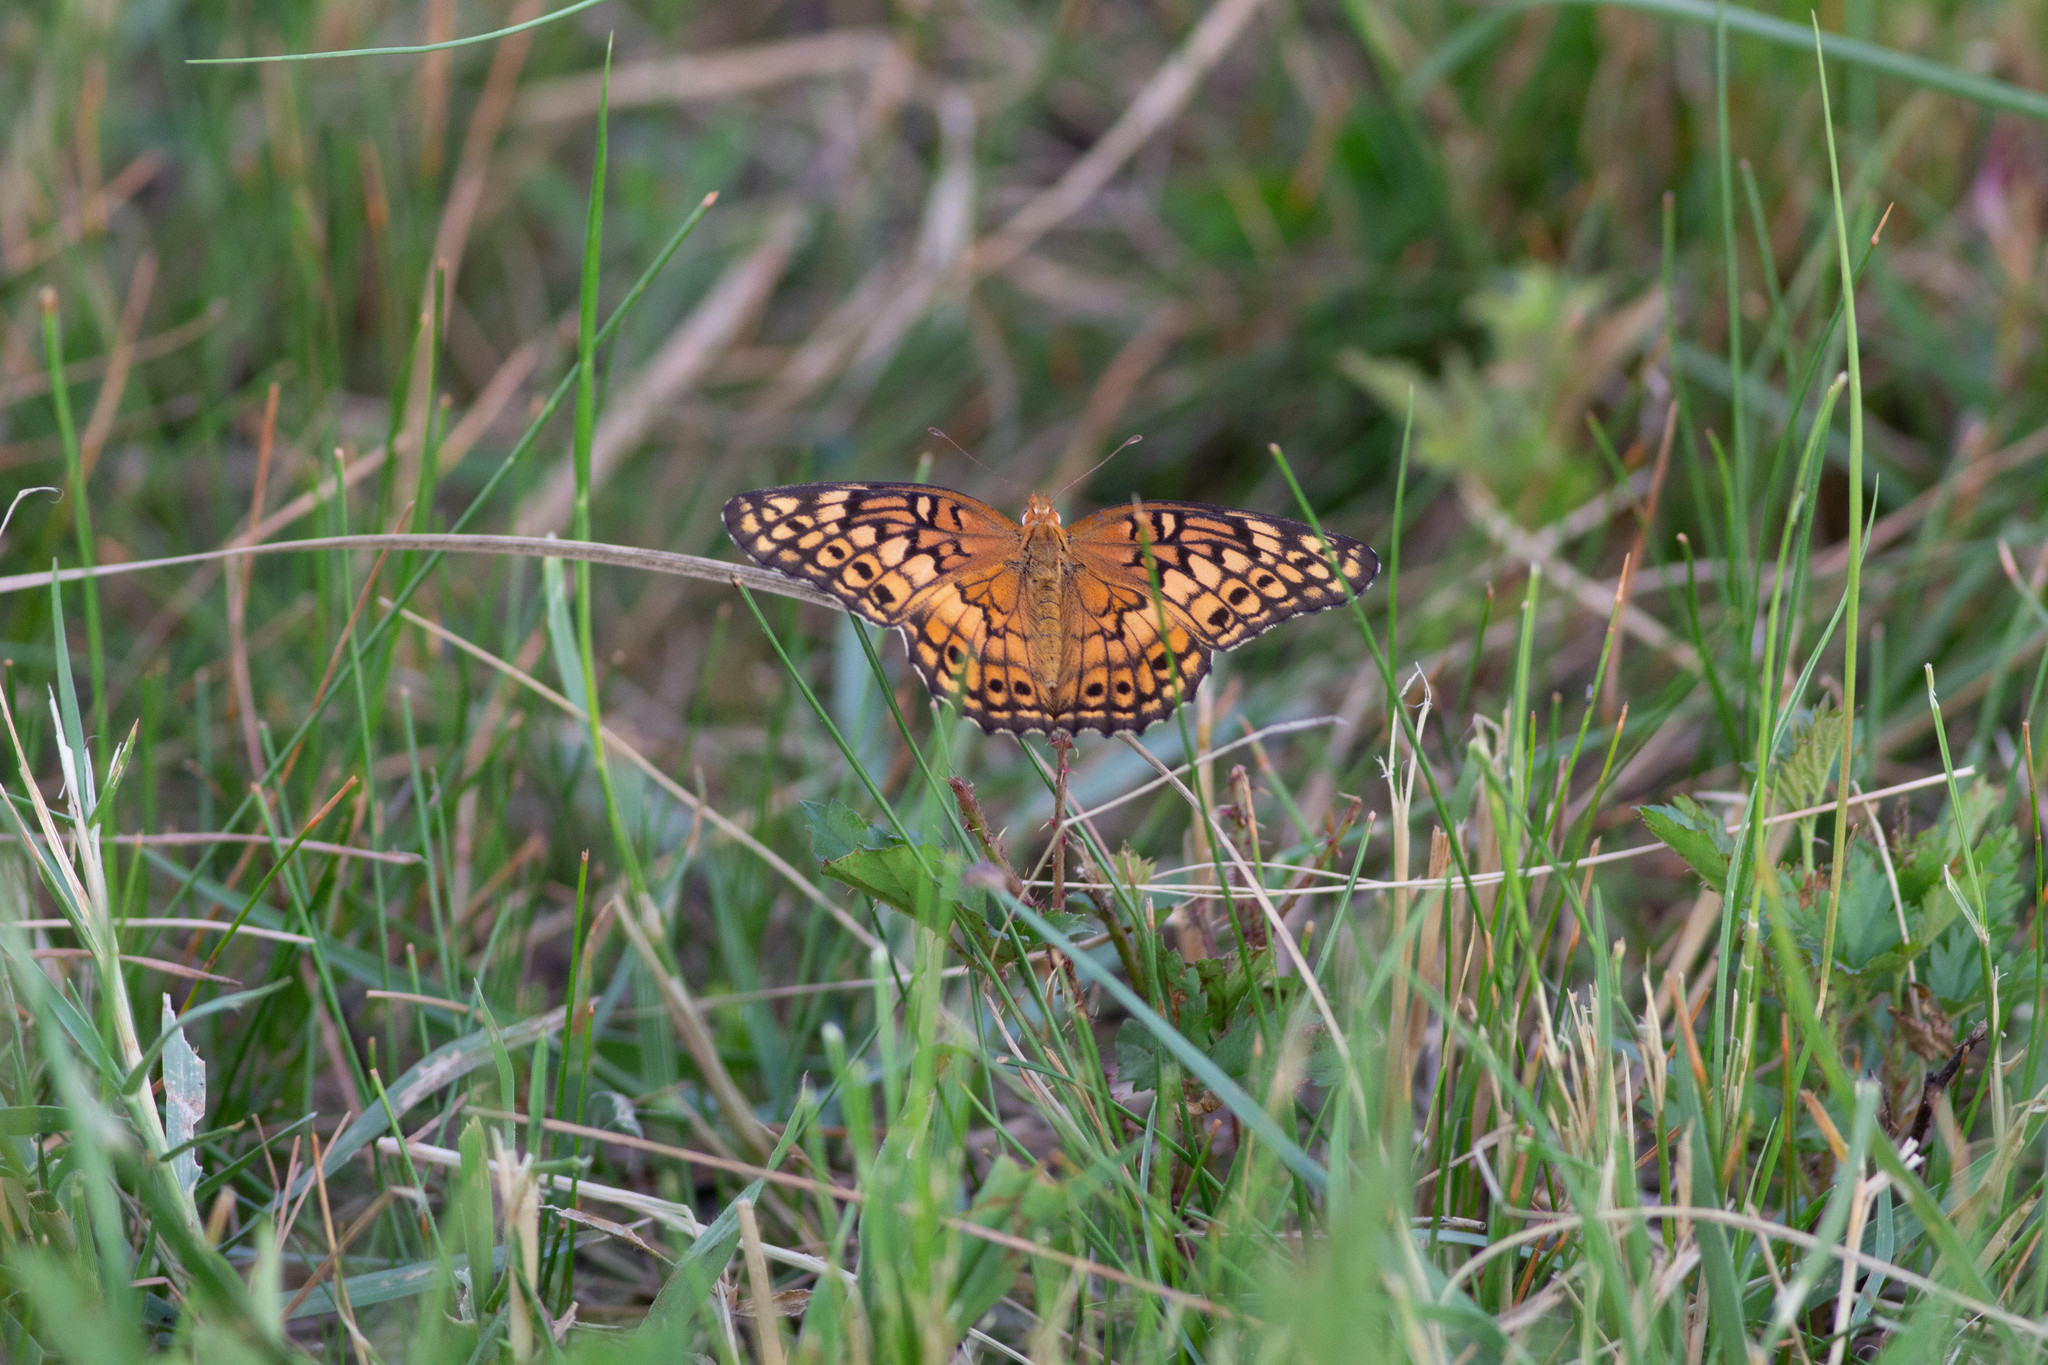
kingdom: Animalia
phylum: Arthropoda
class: Insecta
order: Lepidoptera
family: Nymphalidae
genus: Euptoieta
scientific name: Euptoieta claudia
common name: Variegated fritillary
